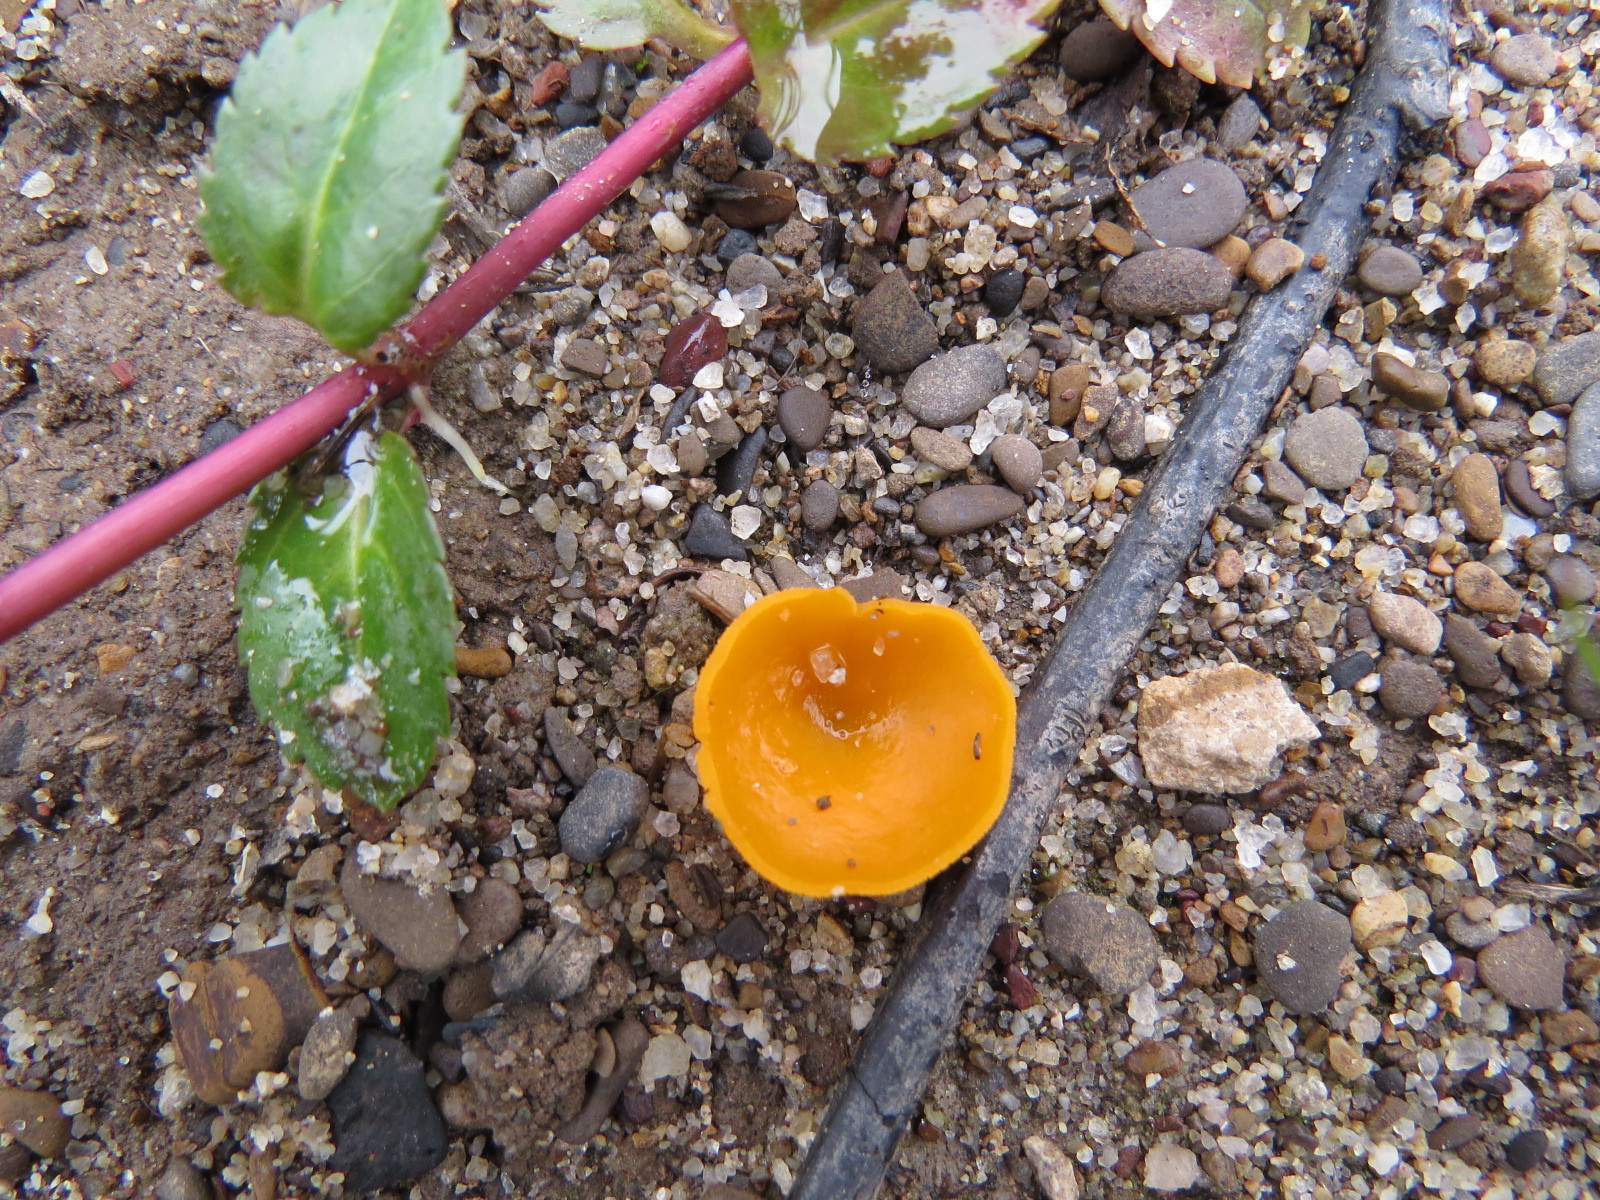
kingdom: Fungi
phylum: Ascomycota
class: Pezizomycetes
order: Pezizales
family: Pyronemataceae
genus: Aleuria
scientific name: Aleuria aurantia
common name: Orange peel fungus
